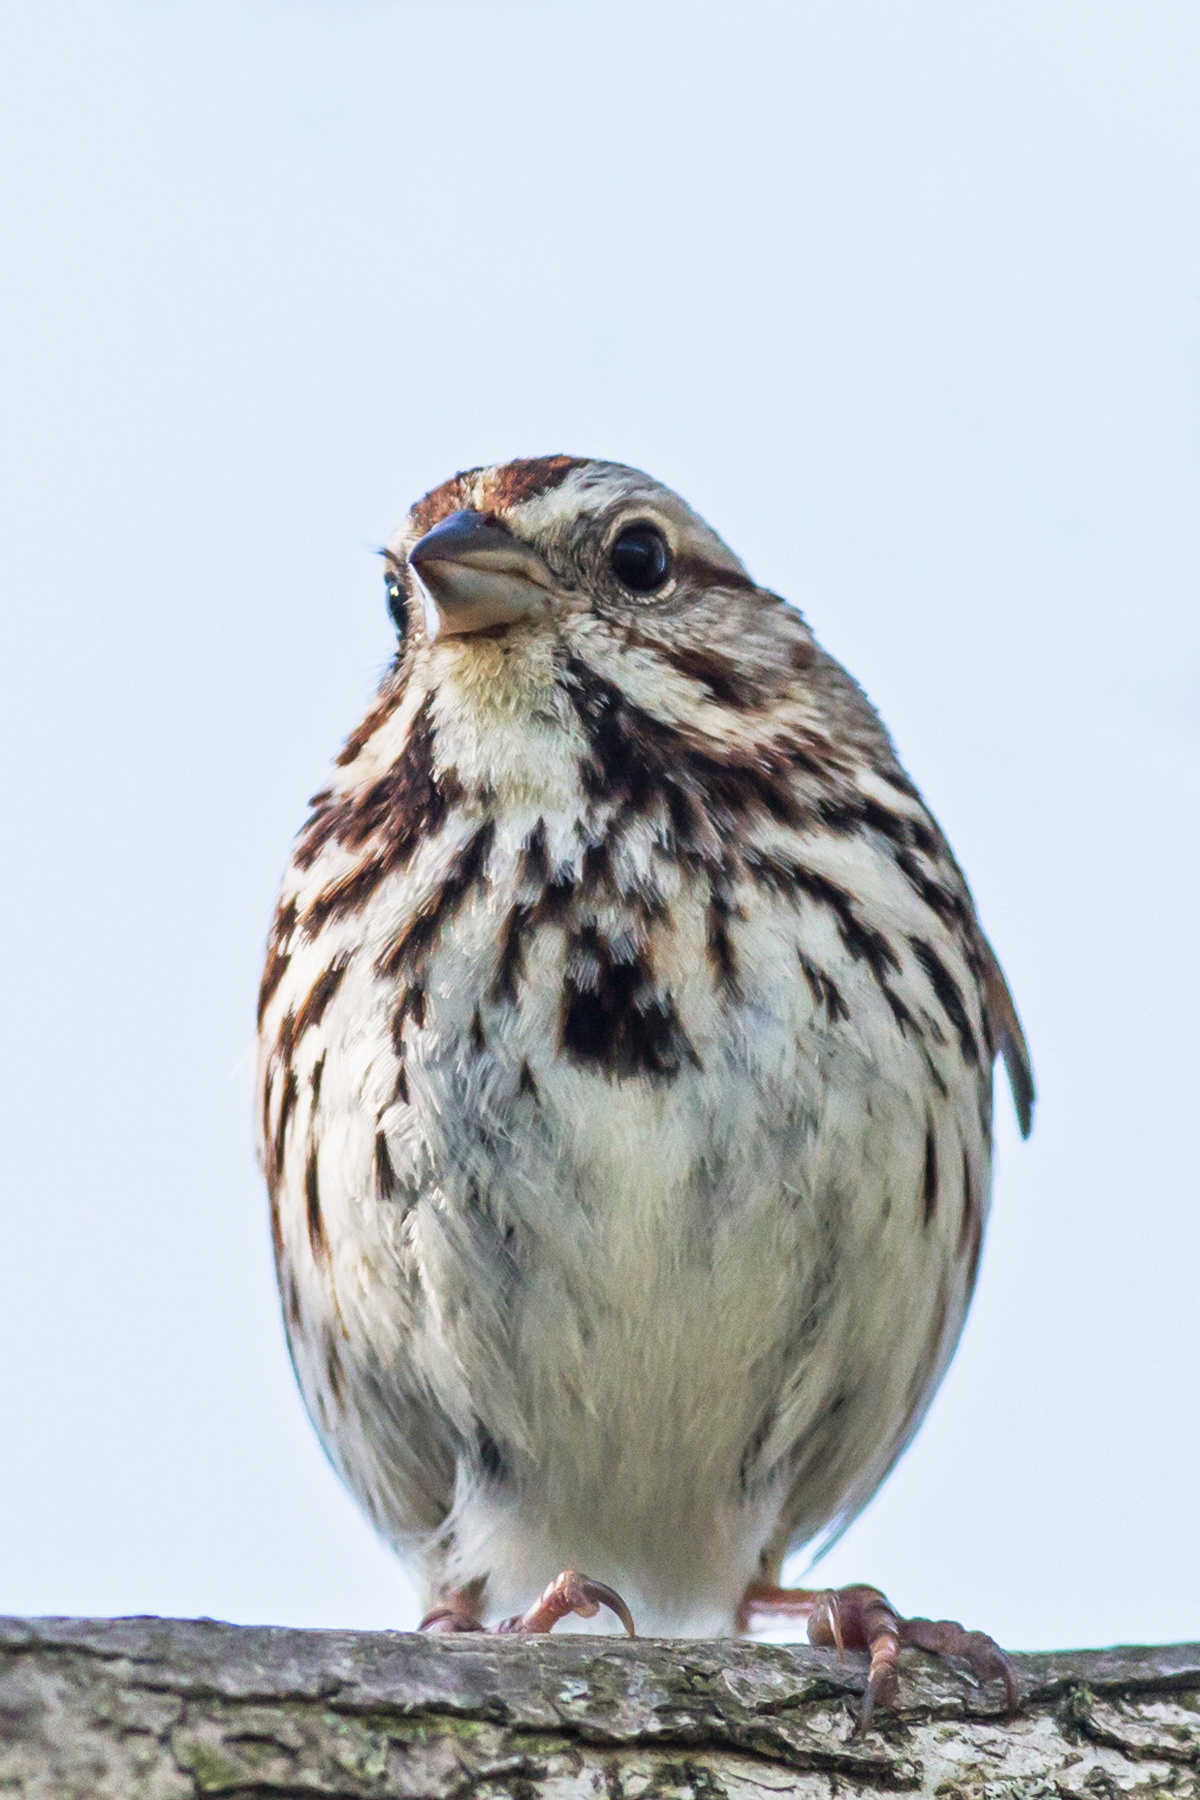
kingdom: Animalia
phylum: Chordata
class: Aves
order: Passeriformes
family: Passerellidae
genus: Melospiza
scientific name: Melospiza melodia
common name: Song sparrow
